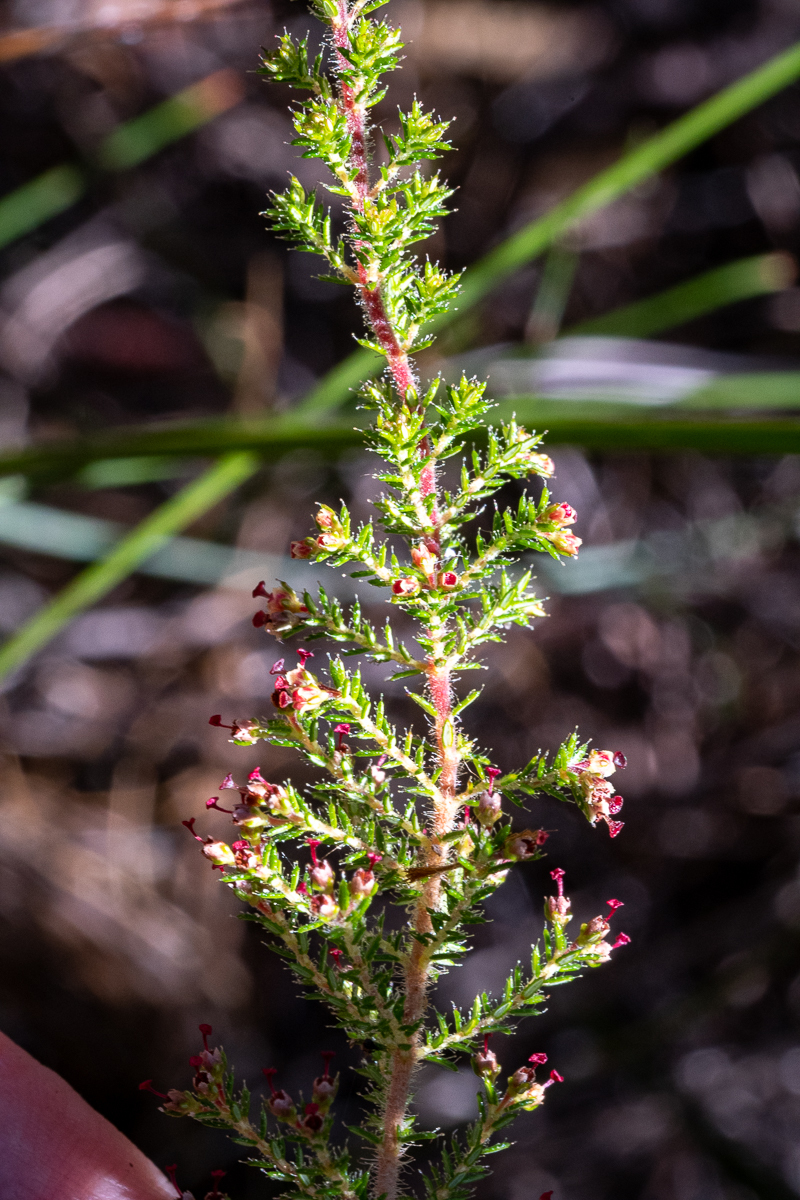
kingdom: Plantae
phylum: Tracheophyta
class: Magnoliopsida
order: Ericales
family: Ericaceae
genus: Erica
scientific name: Erica exleeana
